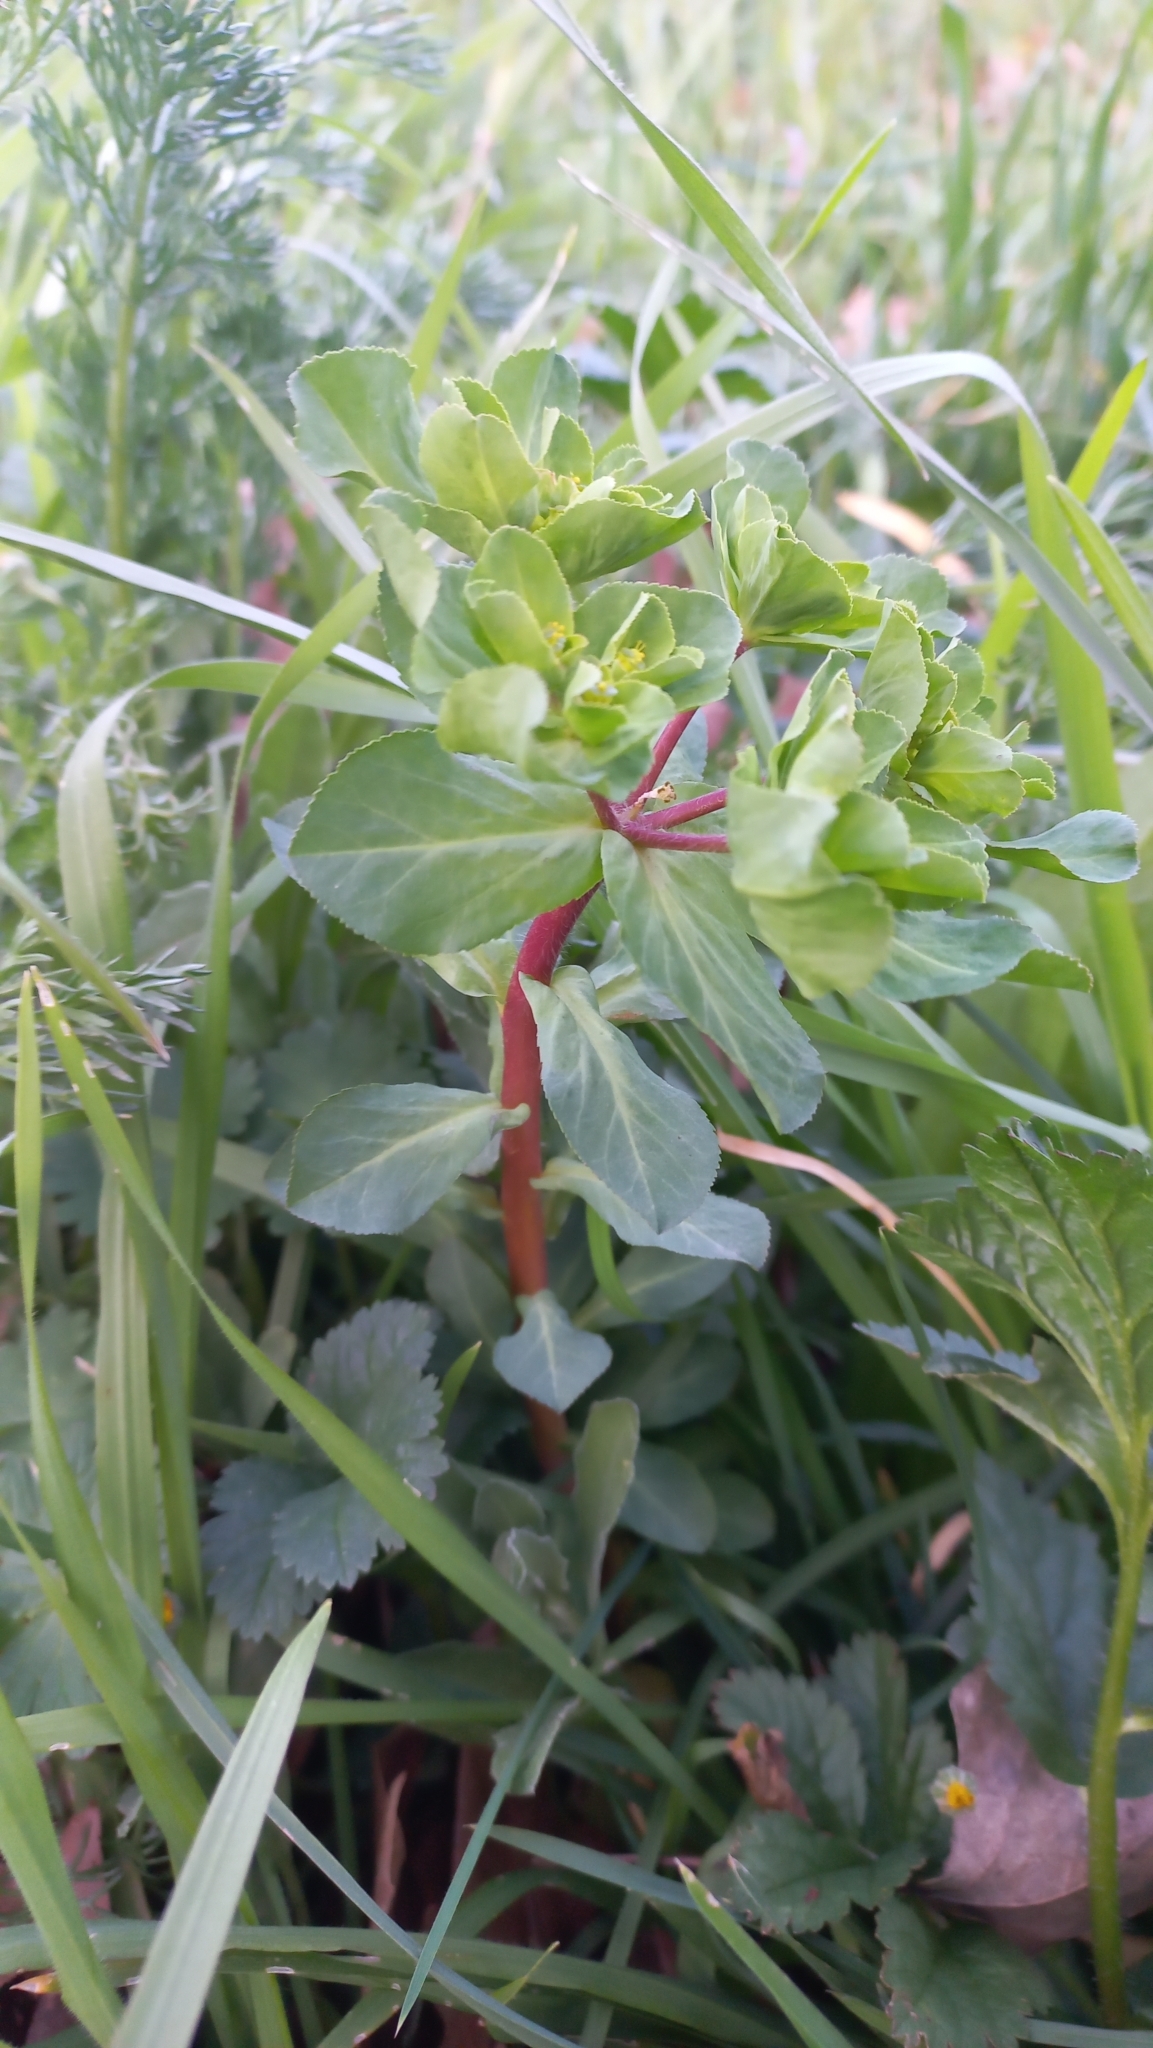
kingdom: Plantae
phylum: Tracheophyta
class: Magnoliopsida
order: Malpighiales
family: Euphorbiaceae
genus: Euphorbia
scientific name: Euphorbia helioscopia
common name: Sun spurge
